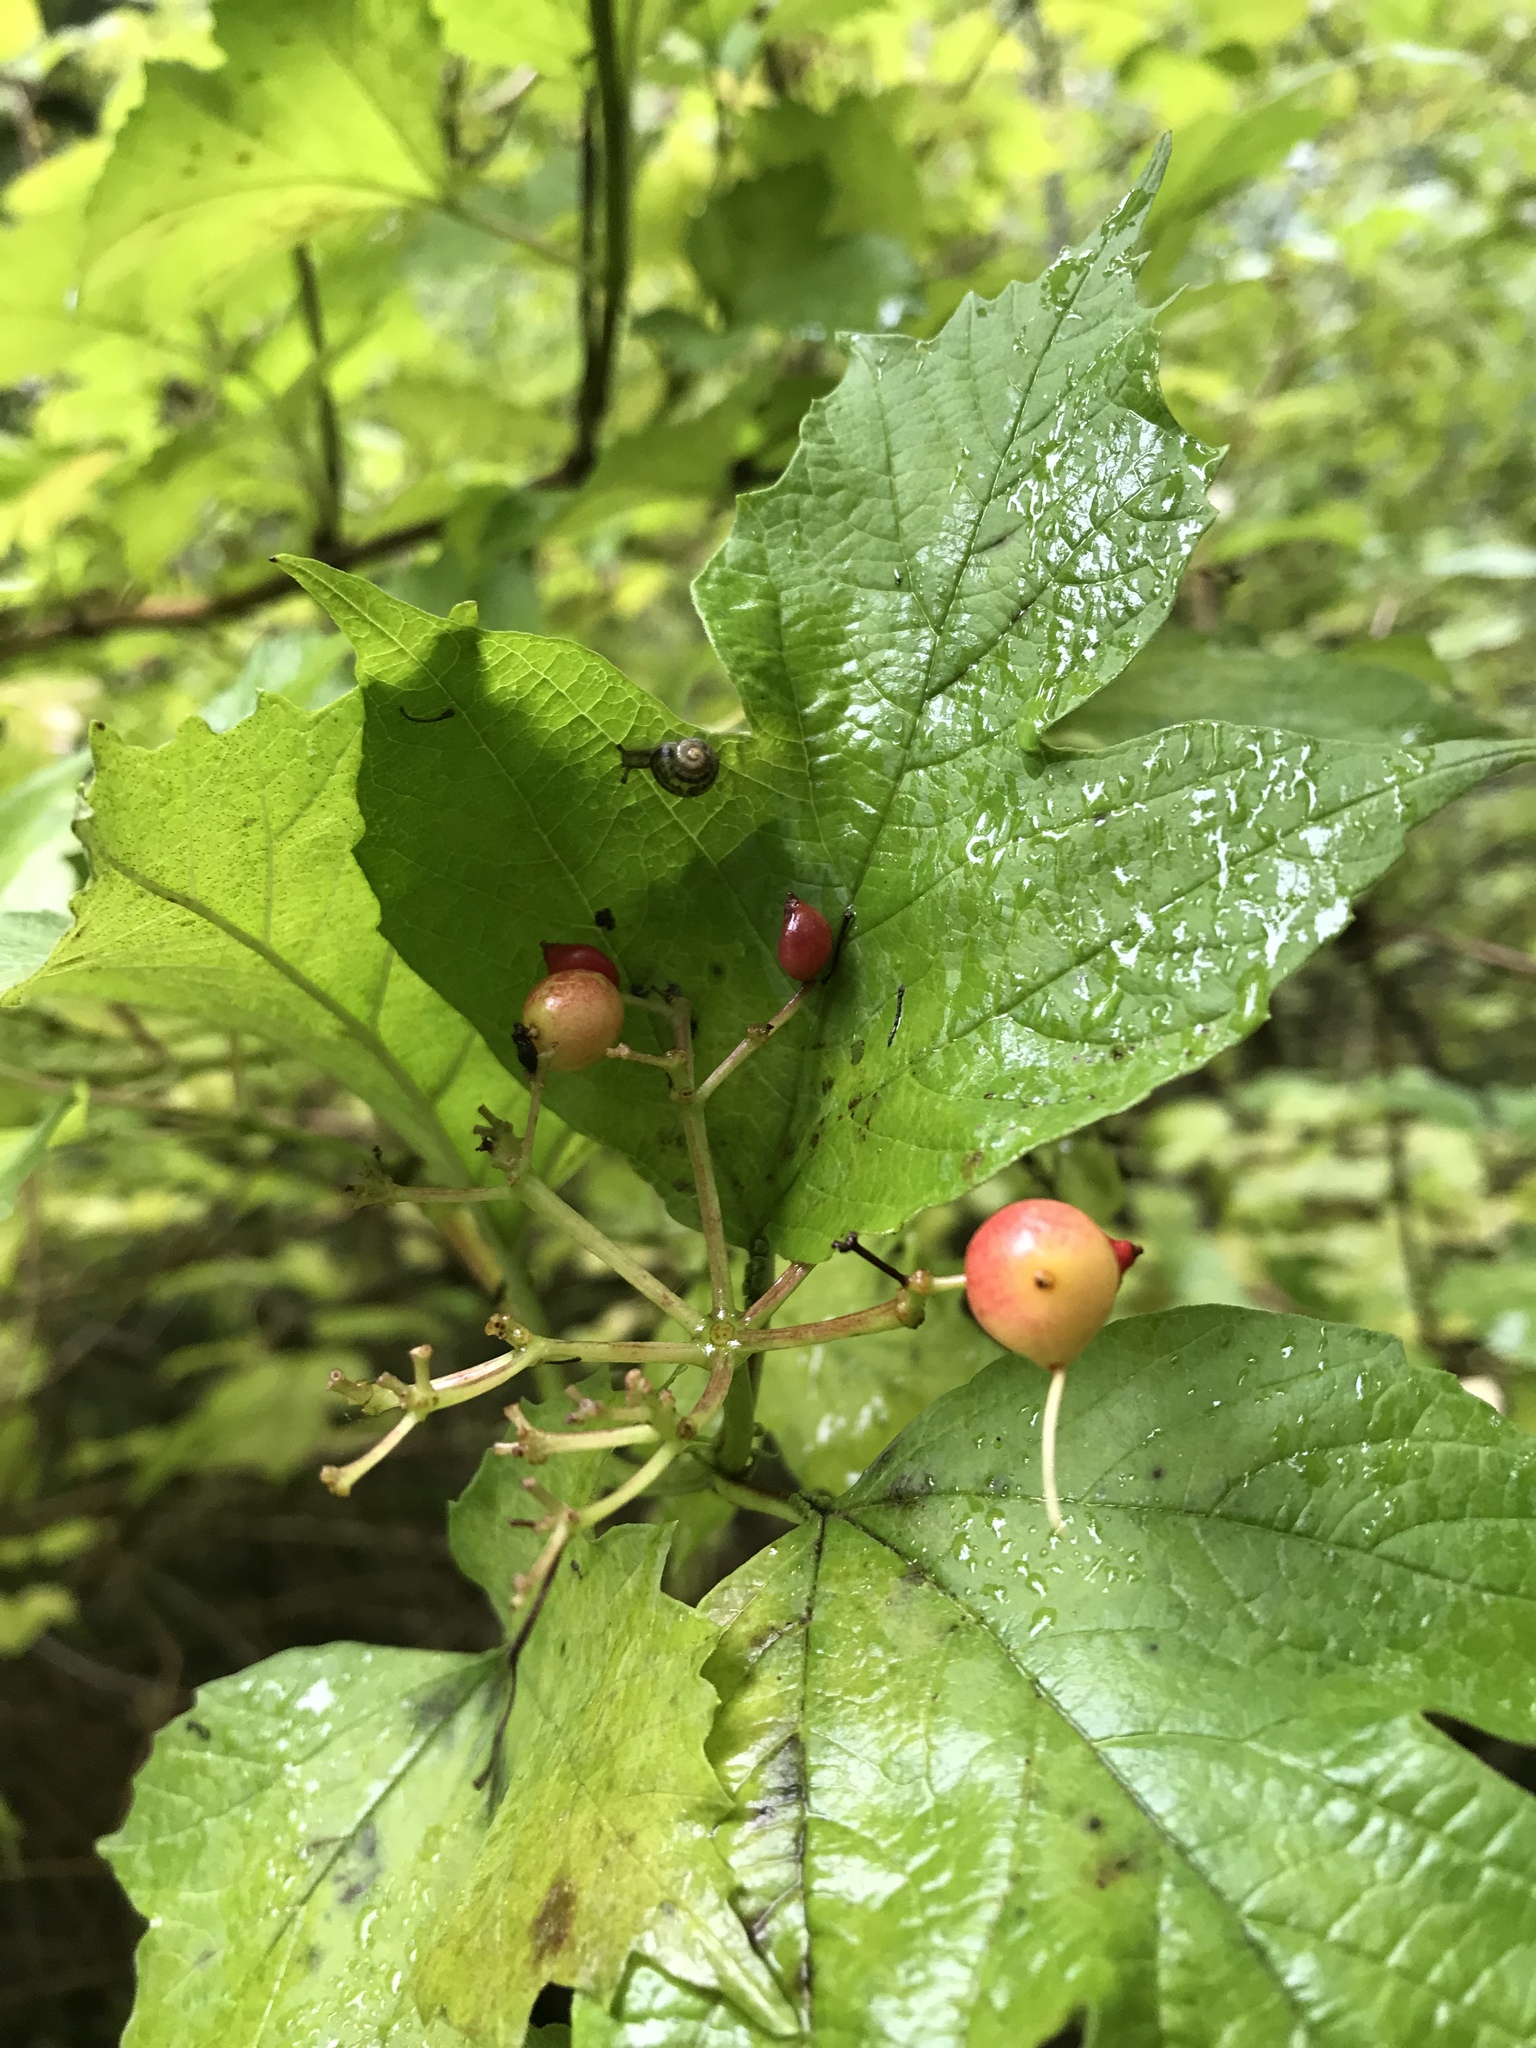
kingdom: Plantae
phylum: Tracheophyta
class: Magnoliopsida
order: Dipsacales
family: Viburnaceae
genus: Viburnum
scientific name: Viburnum opulus
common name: Guelder-rose
